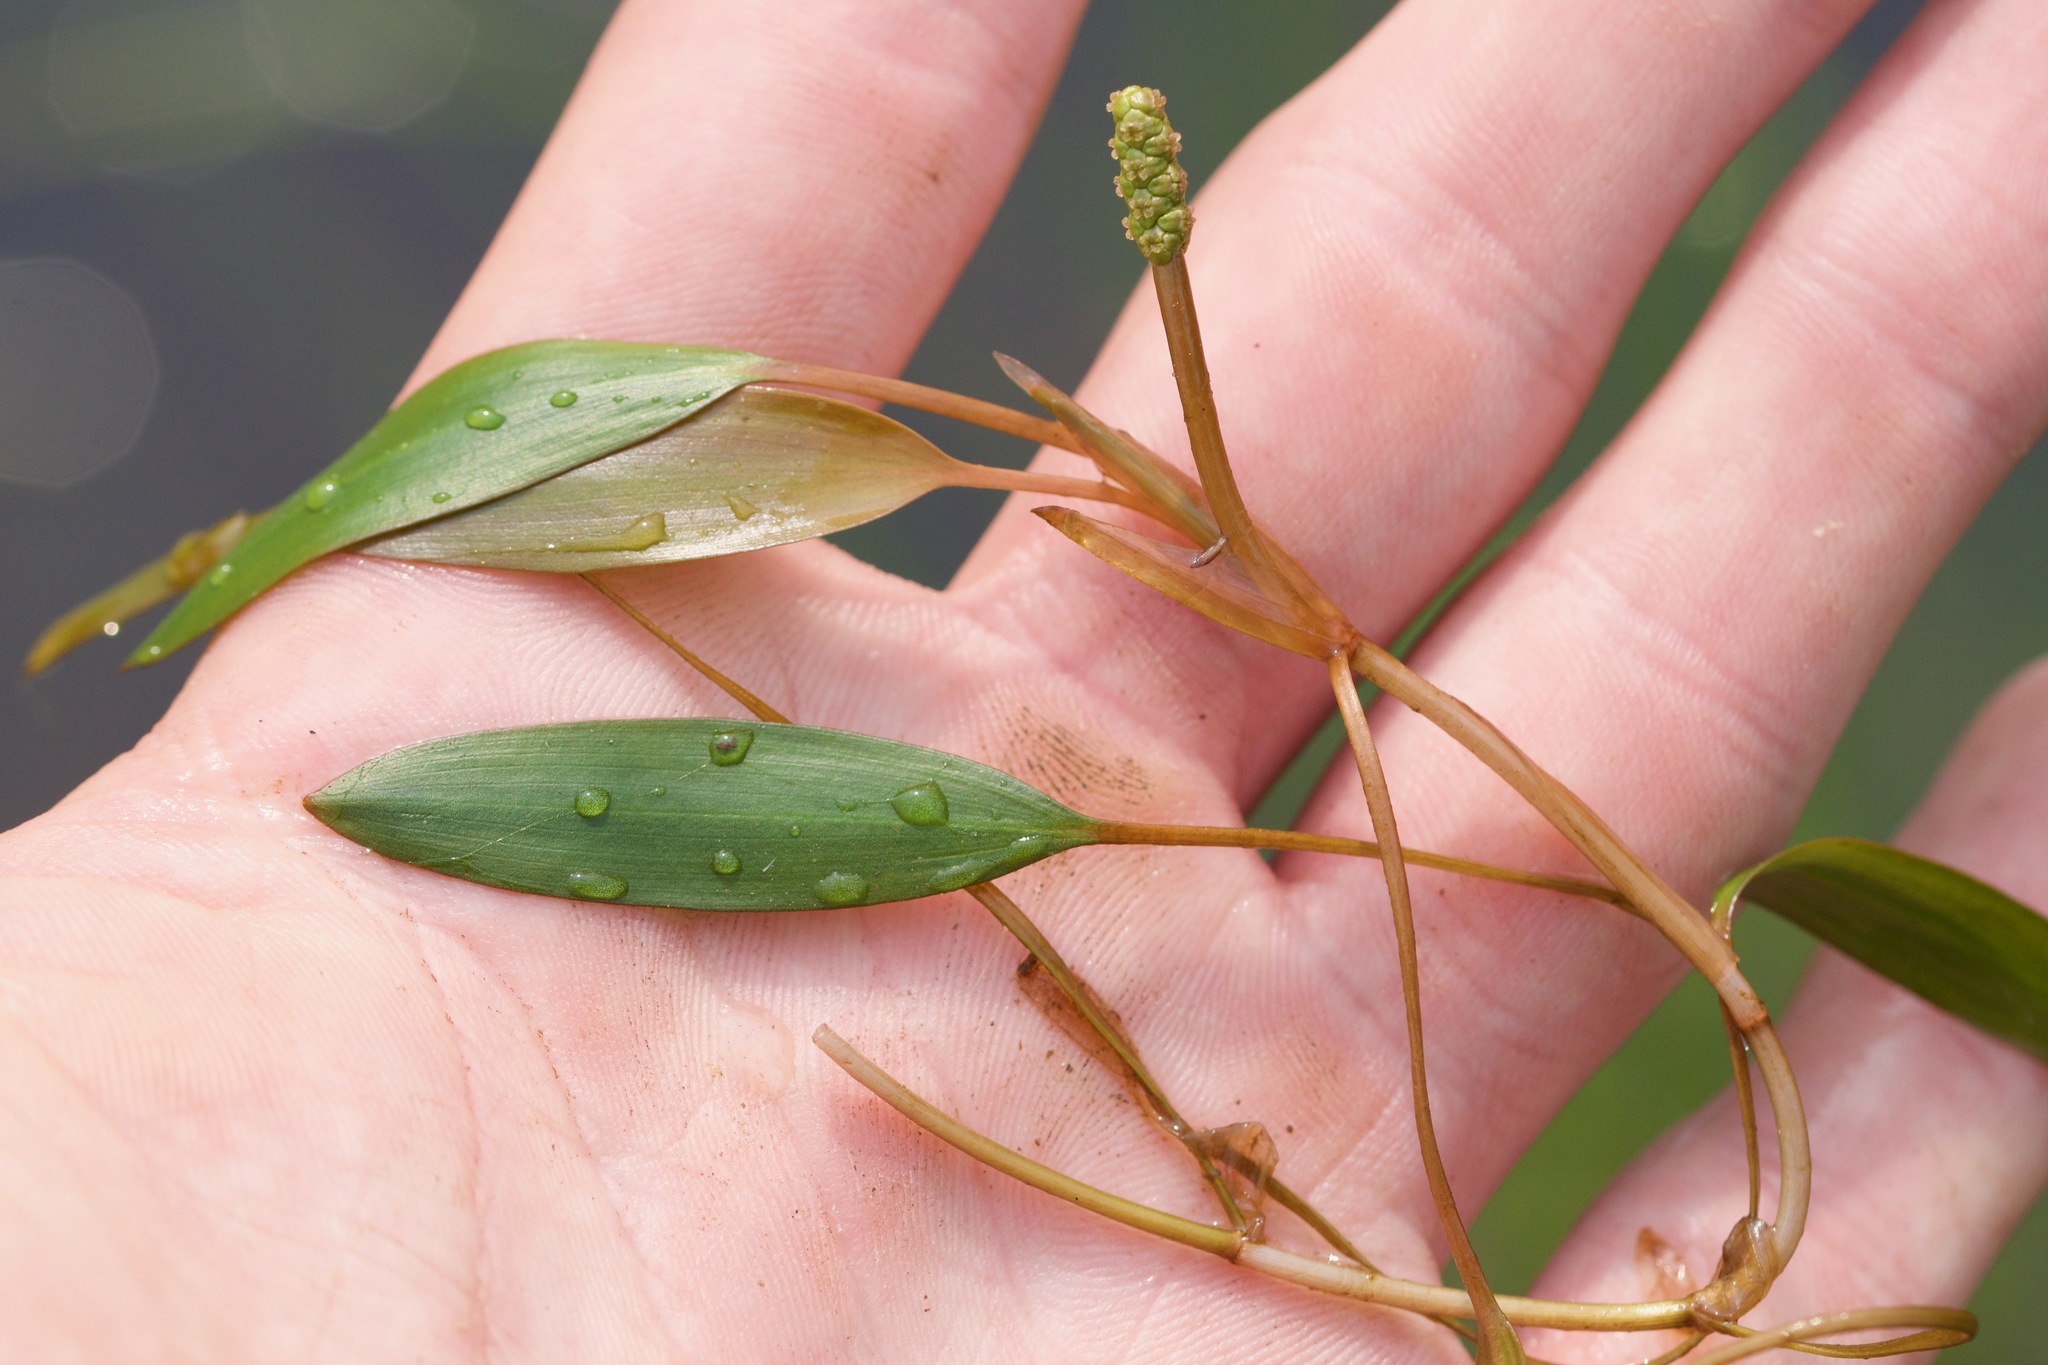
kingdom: Plantae
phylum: Tracheophyta
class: Liliopsida
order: Alismatales
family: Potamogetonaceae
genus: Potamogeton
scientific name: Potamogeton epihydrus
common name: American pondweed
